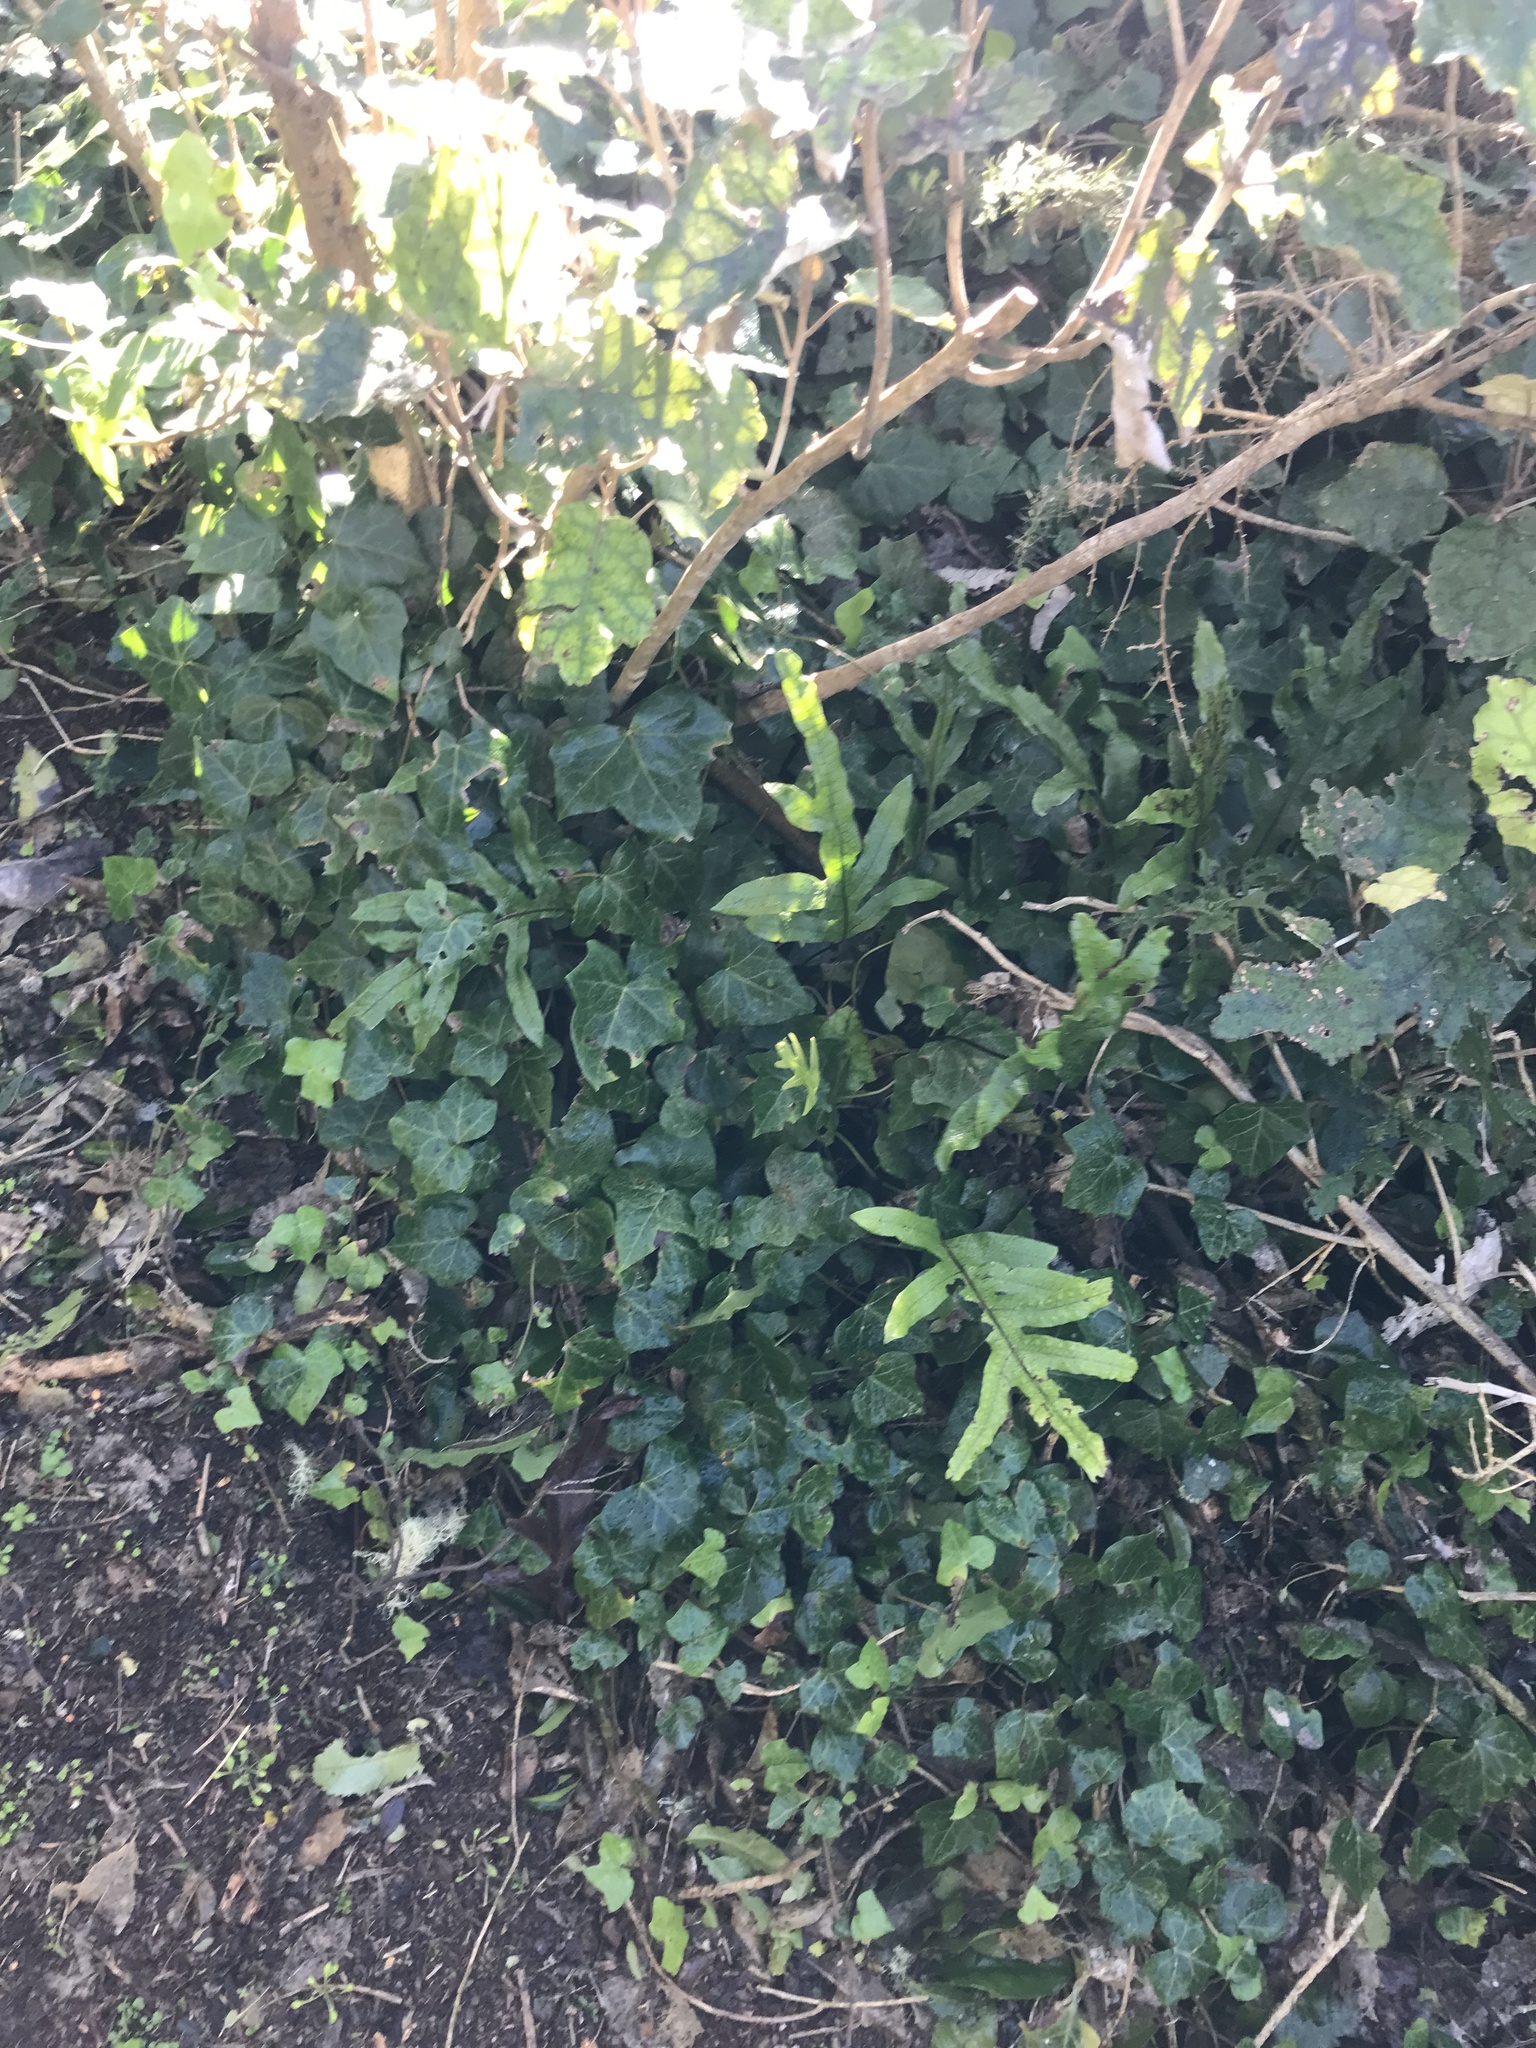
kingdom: Plantae
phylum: Tracheophyta
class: Magnoliopsida
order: Apiales
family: Araliaceae
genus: Hedera
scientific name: Hedera helix
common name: Ivy
